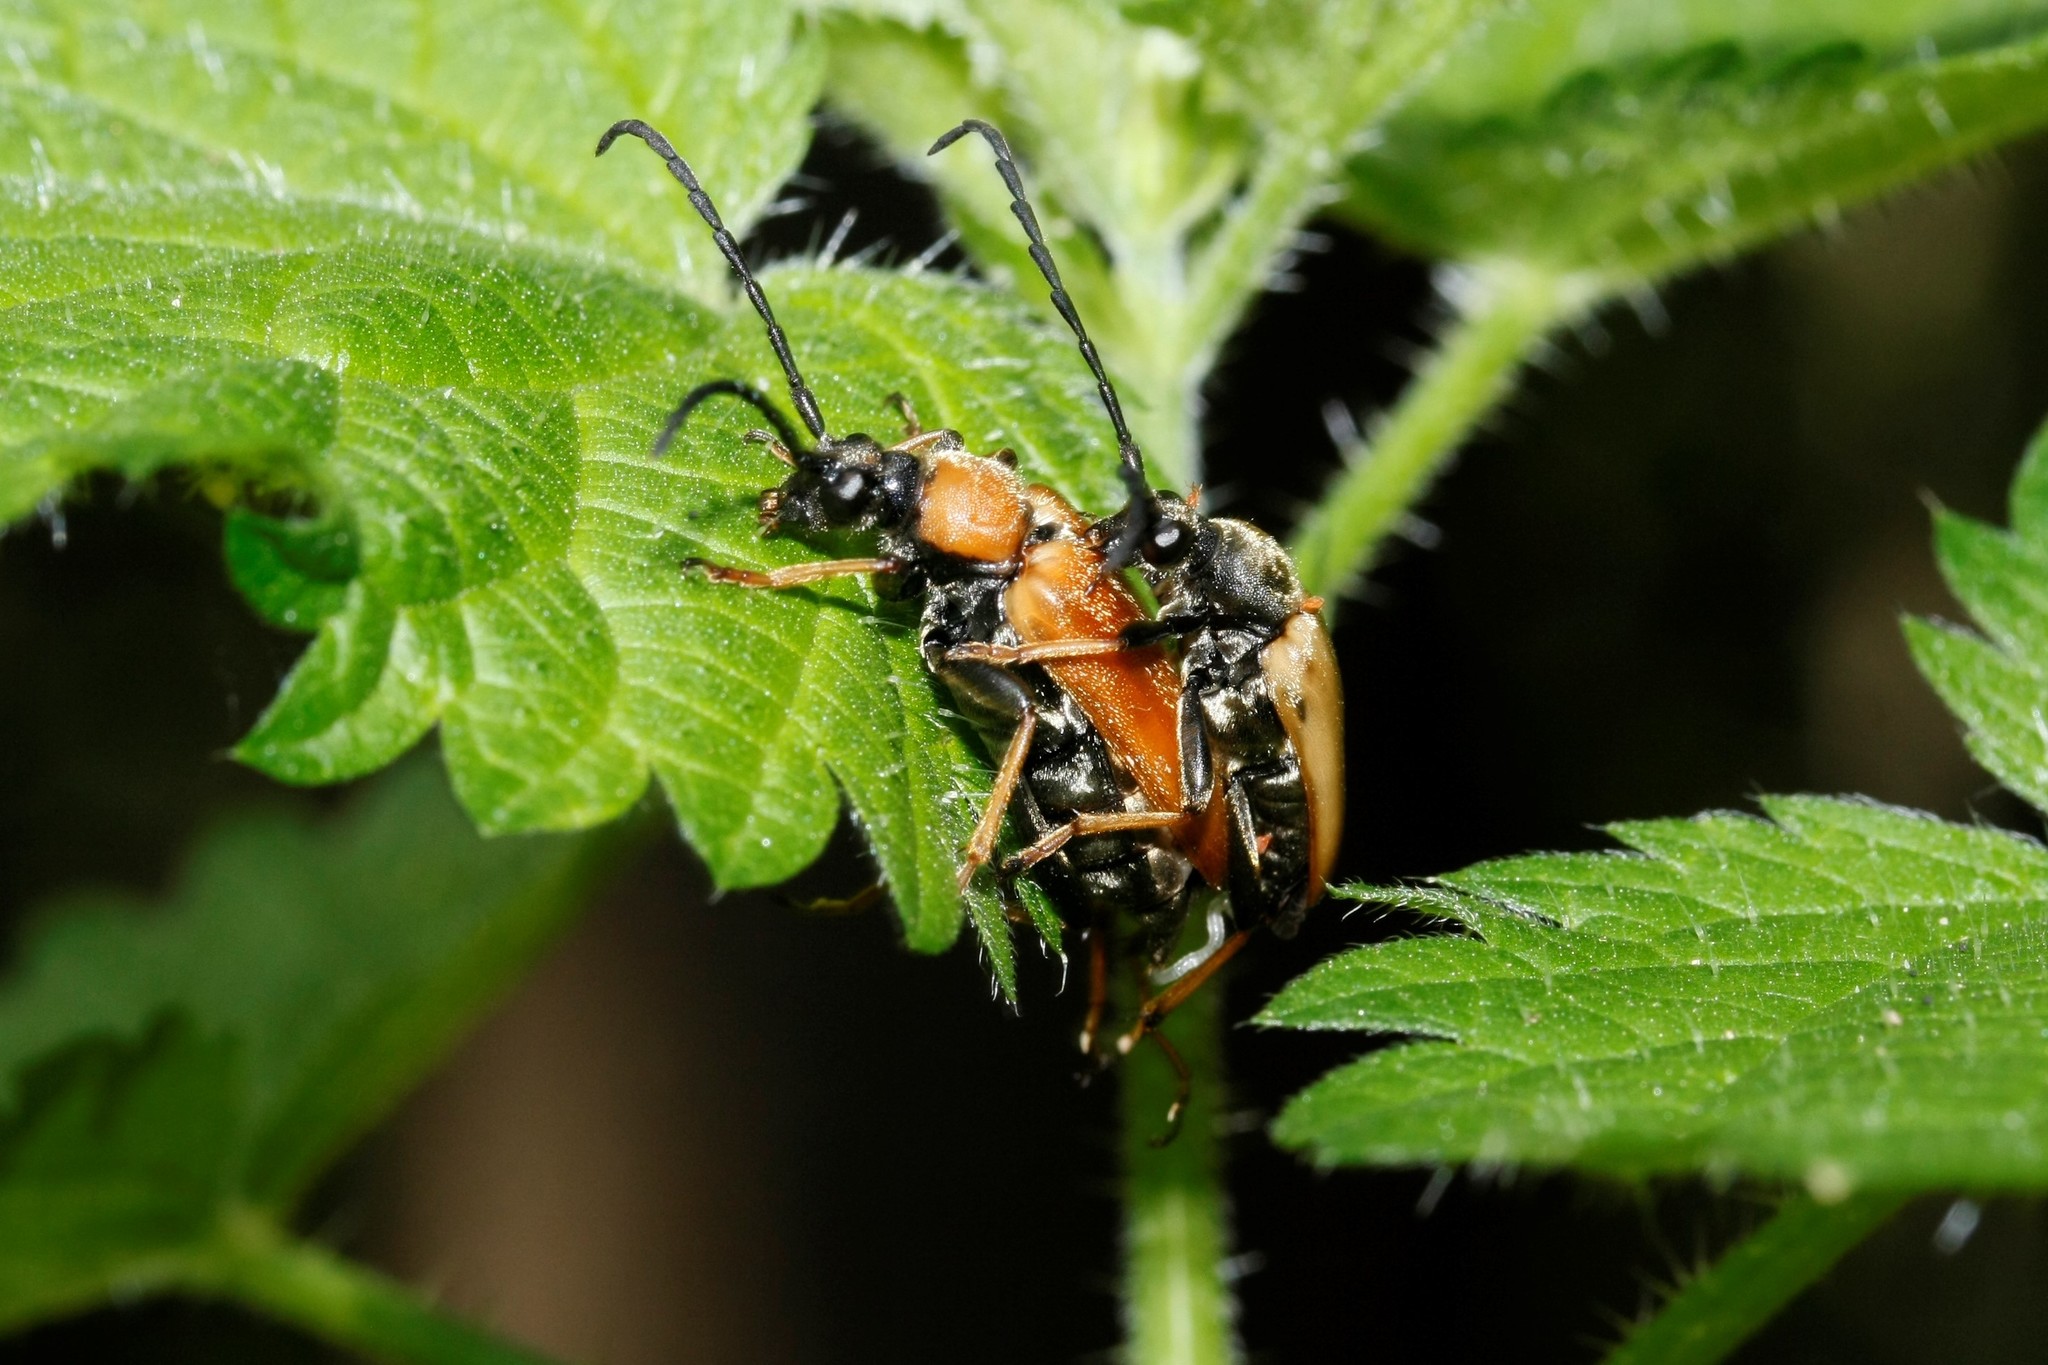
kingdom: Animalia
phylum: Arthropoda
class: Insecta
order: Coleoptera
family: Cerambycidae
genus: Stictoleptura
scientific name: Stictoleptura rubra
